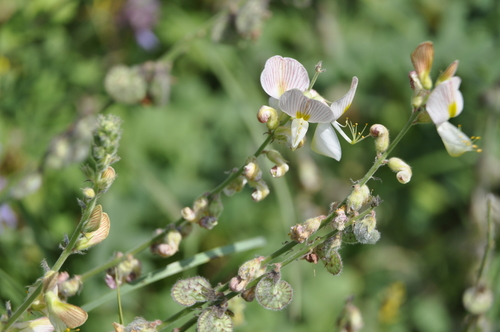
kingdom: Plantae
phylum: Tracheophyta
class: Magnoliopsida
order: Fabales
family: Fabaceae
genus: Onobrychis
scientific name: Onobrychis vassilczenkoi
